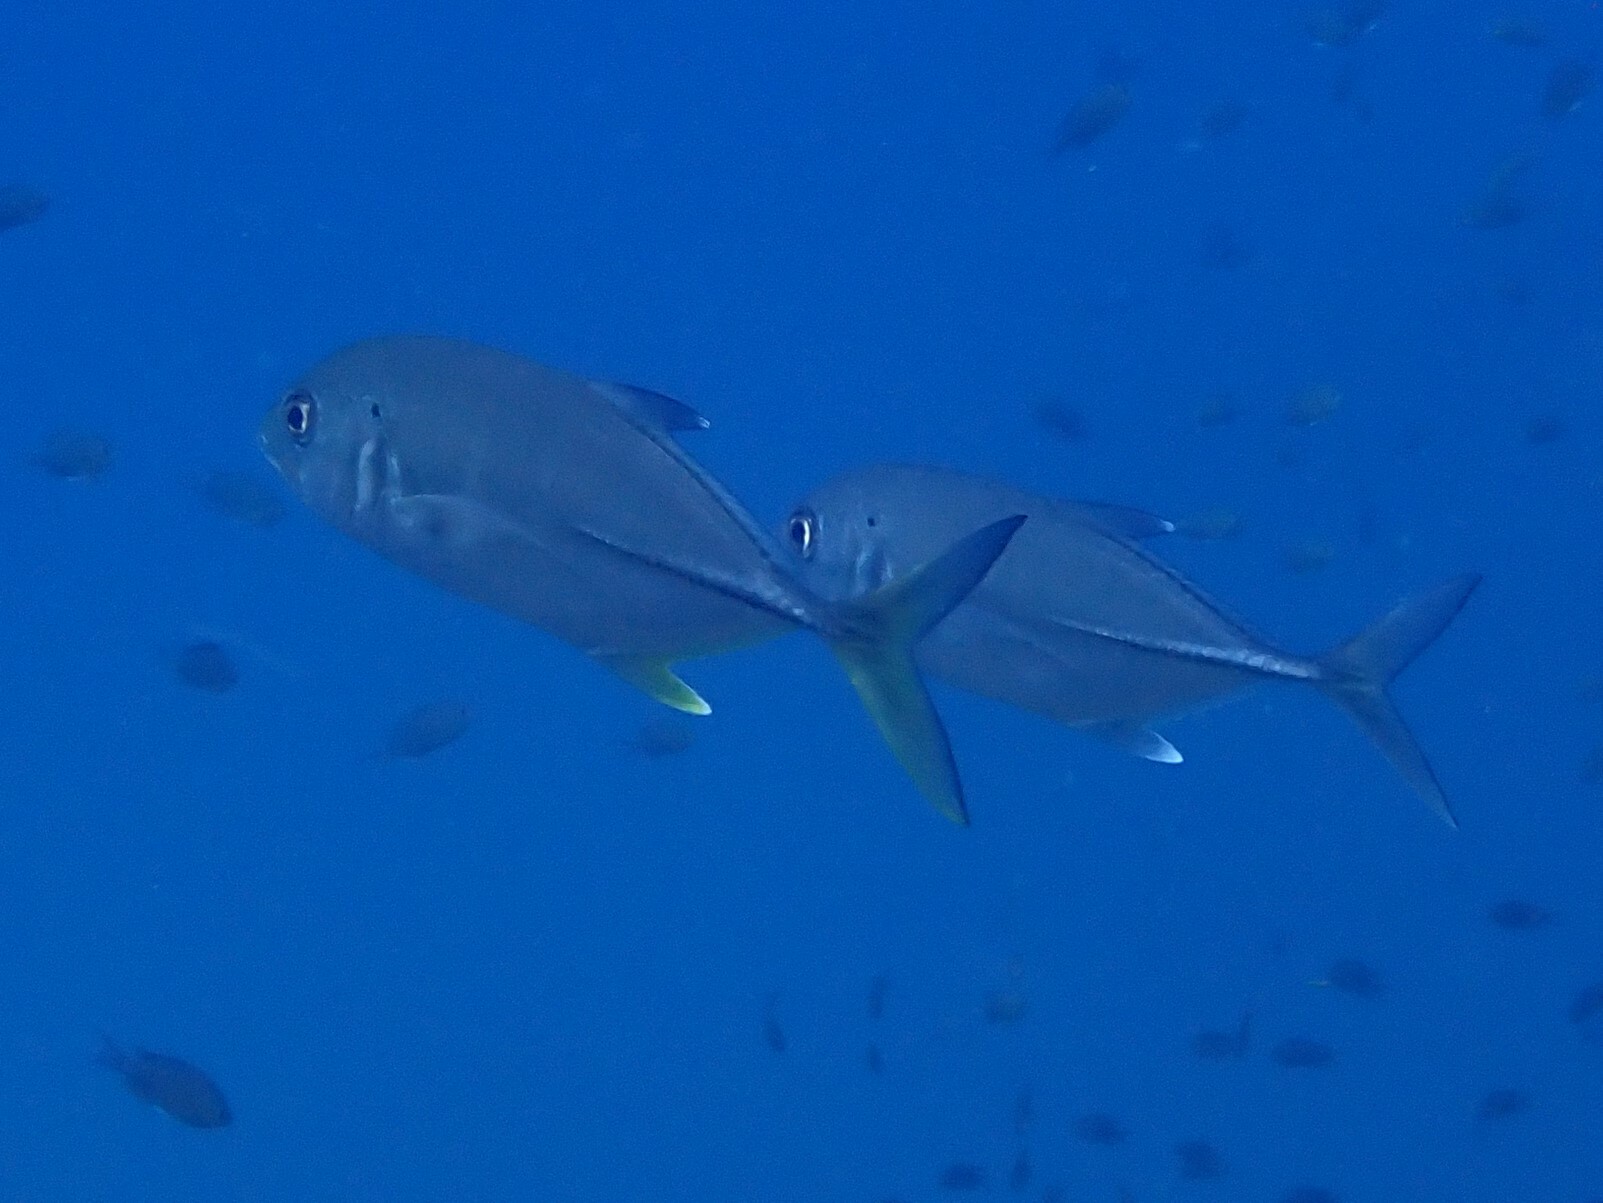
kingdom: Animalia
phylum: Chordata
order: Perciformes
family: Carangidae
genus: Caranx
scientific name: Caranx sexfasciatus
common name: Bigeye trevally
